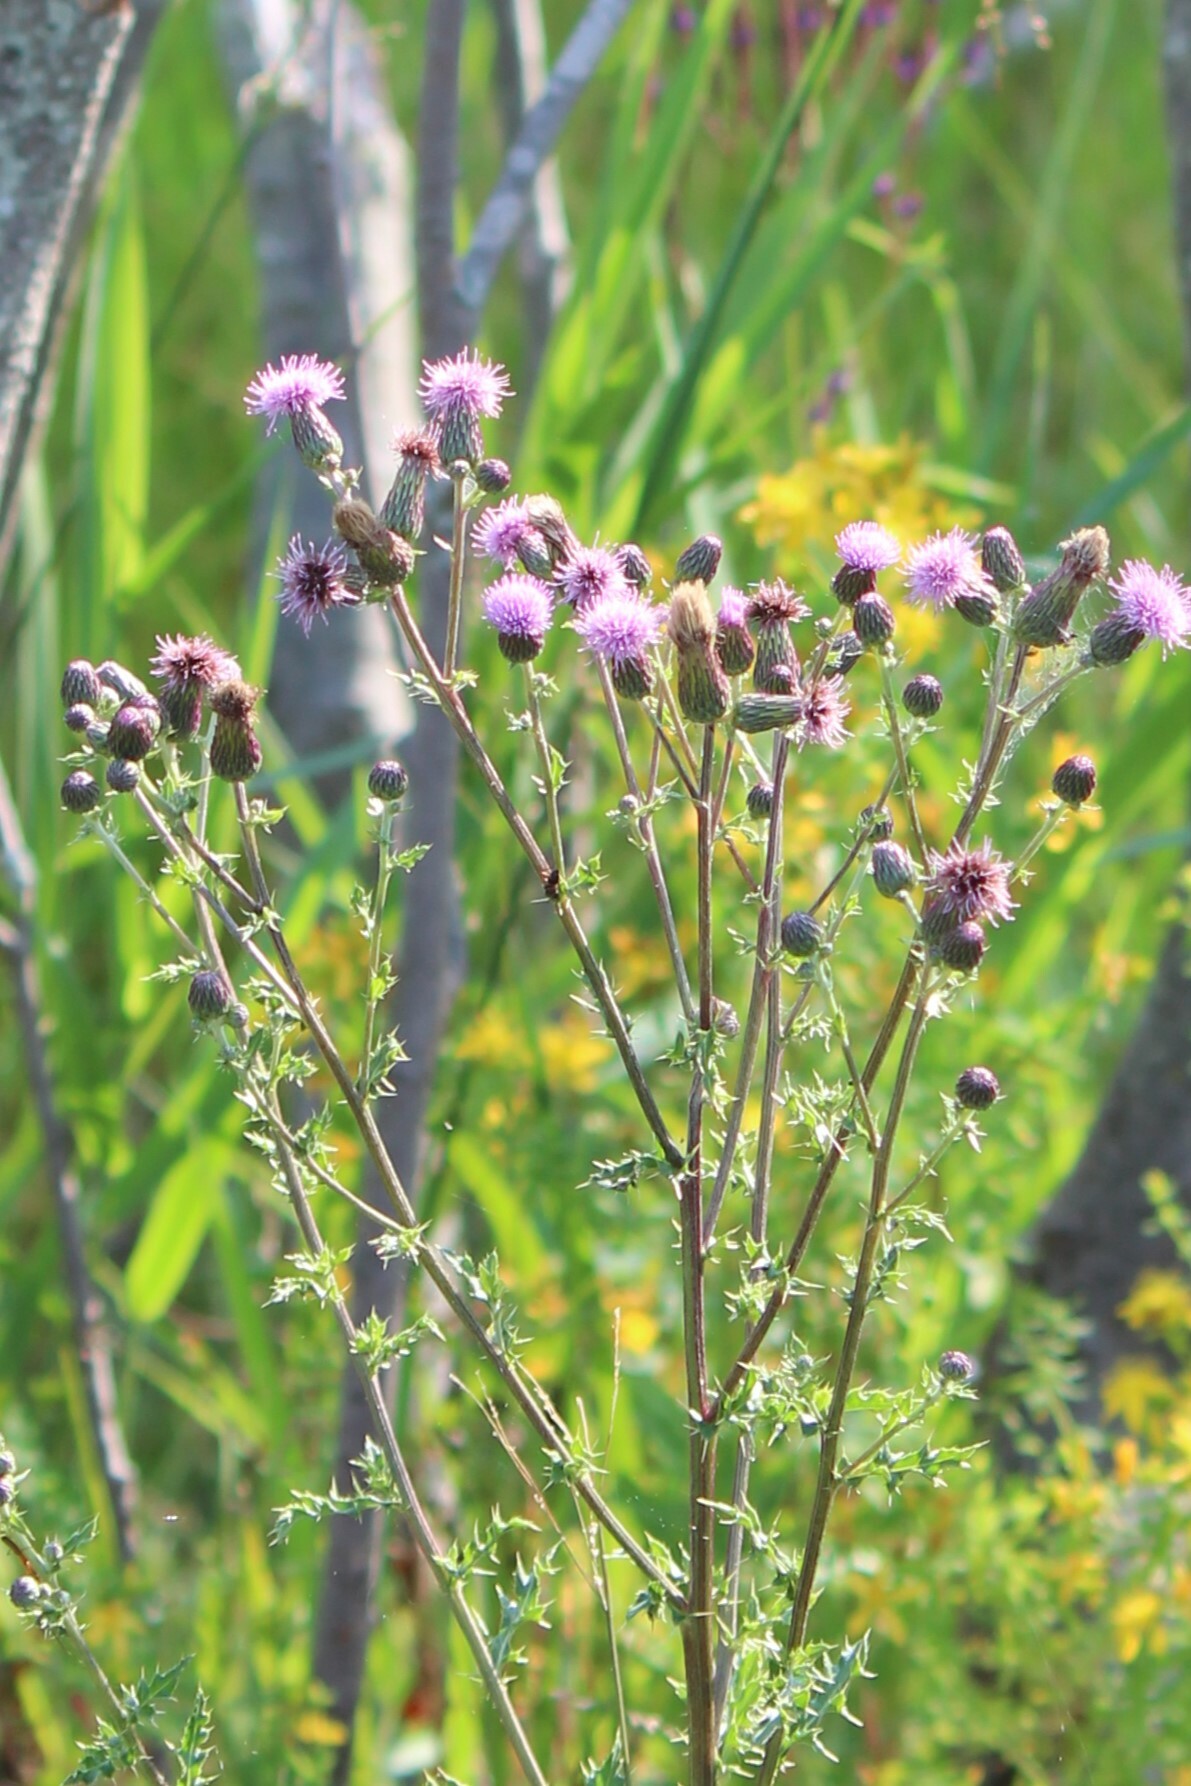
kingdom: Plantae
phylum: Tracheophyta
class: Magnoliopsida
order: Asterales
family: Asteraceae
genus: Cirsium
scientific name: Cirsium arvense
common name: Creeping thistle
